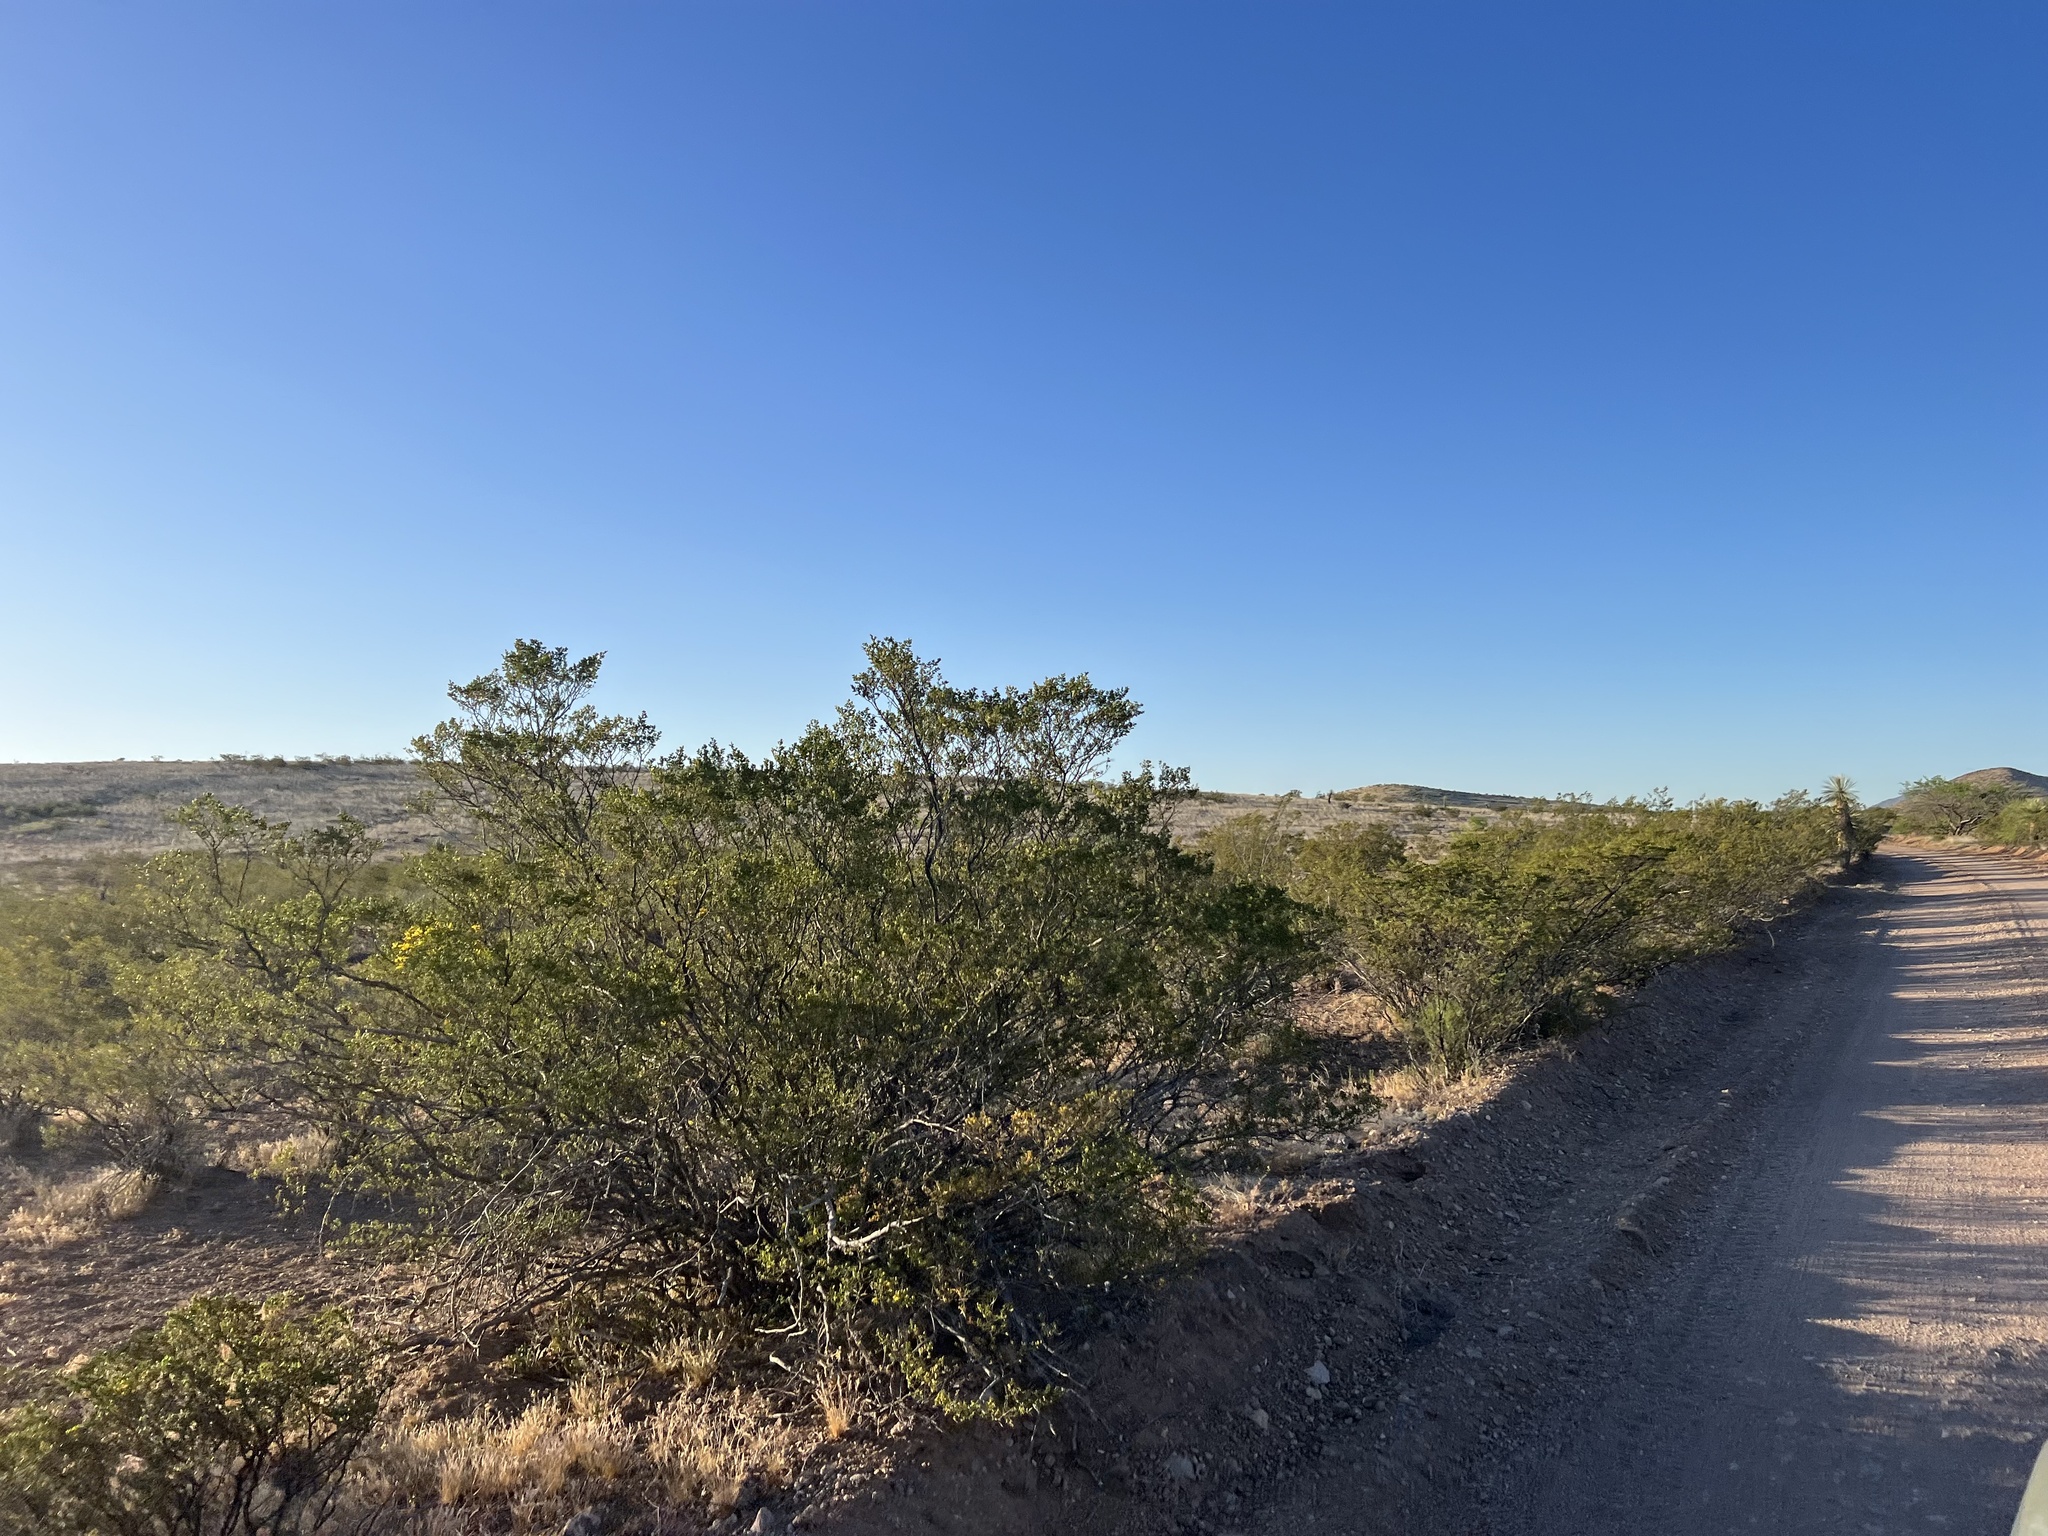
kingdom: Plantae
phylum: Tracheophyta
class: Magnoliopsida
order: Zygophyllales
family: Zygophyllaceae
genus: Larrea
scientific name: Larrea tridentata
